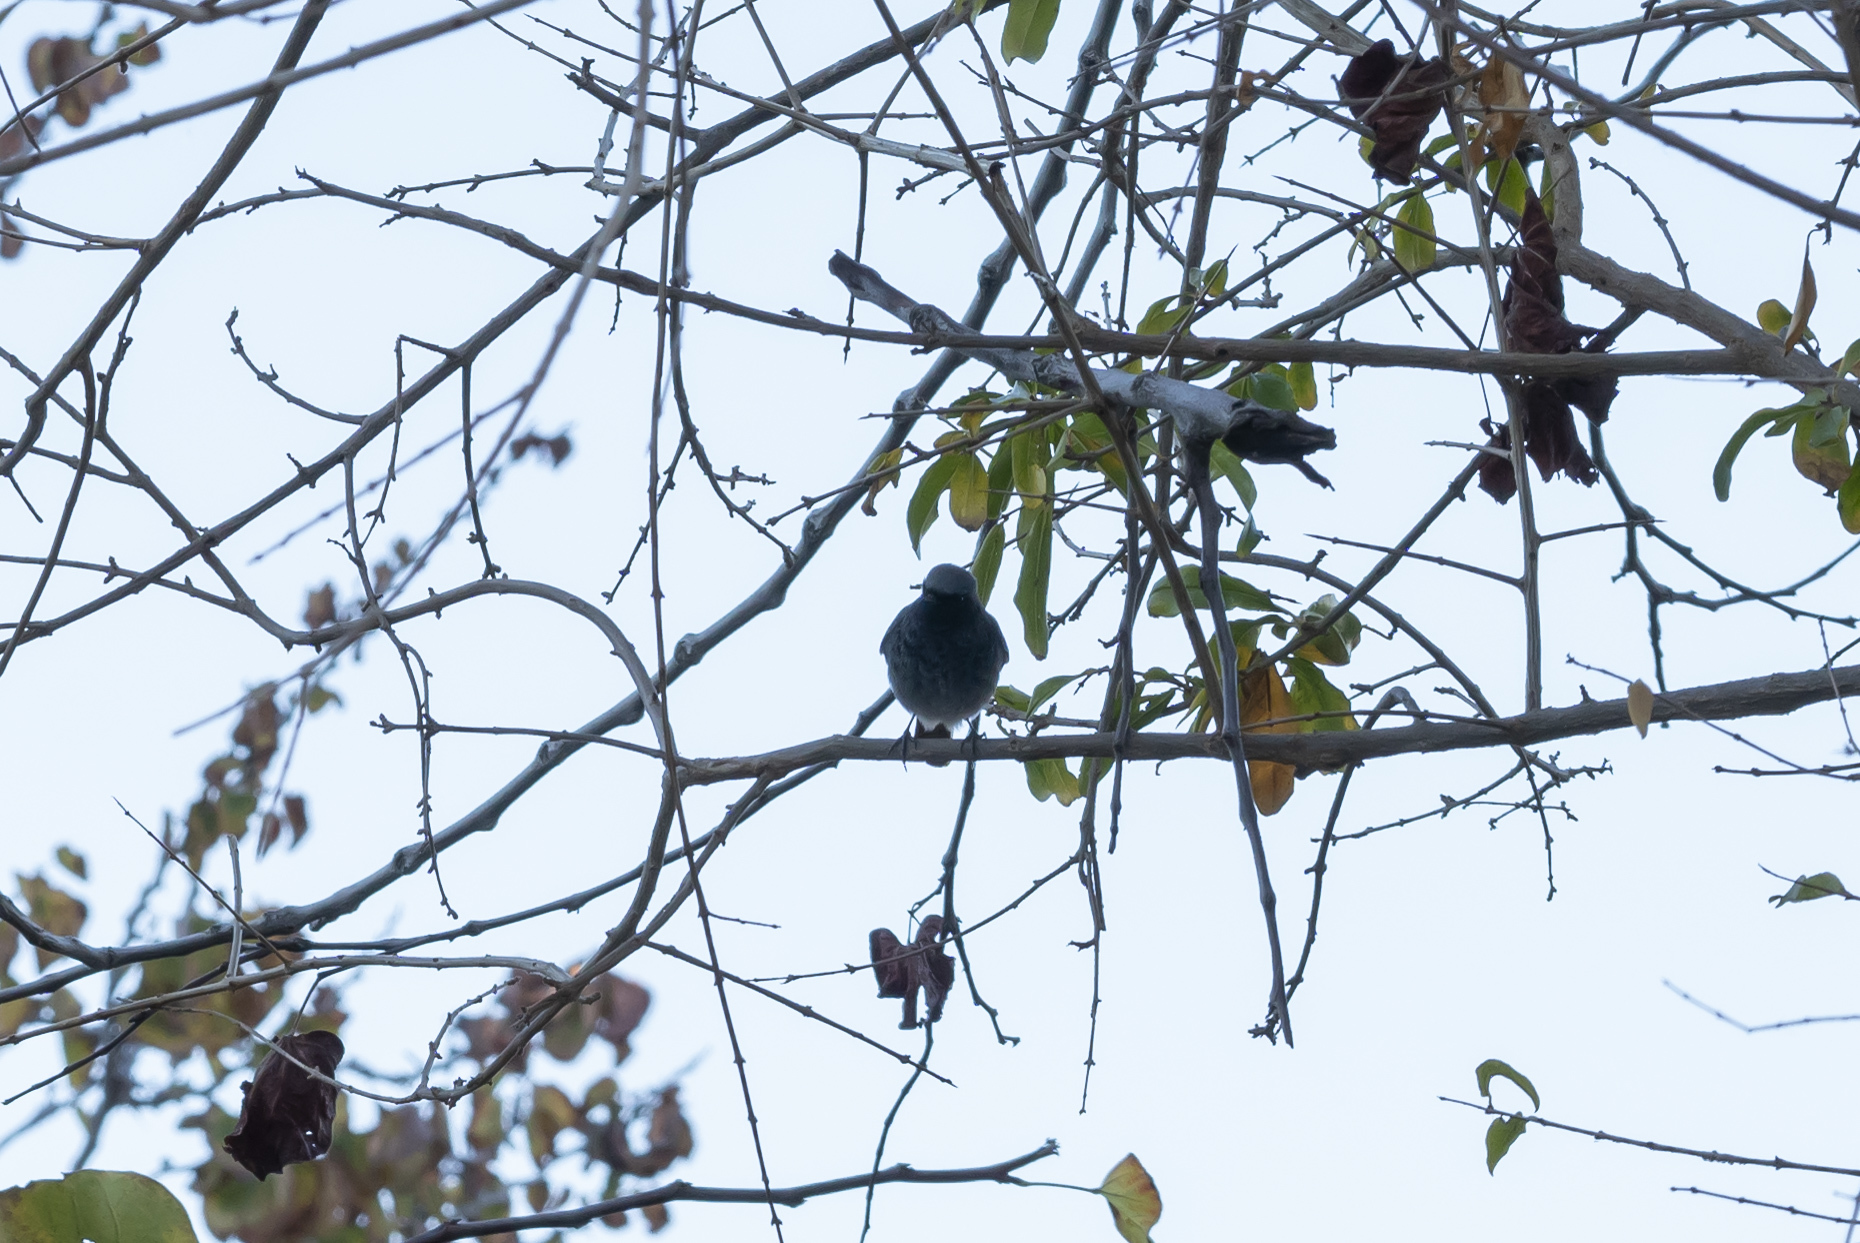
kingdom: Animalia
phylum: Chordata
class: Aves
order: Passeriformes
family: Muscicapidae
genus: Phoenicurus
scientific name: Phoenicurus ochruros
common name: Black redstart
